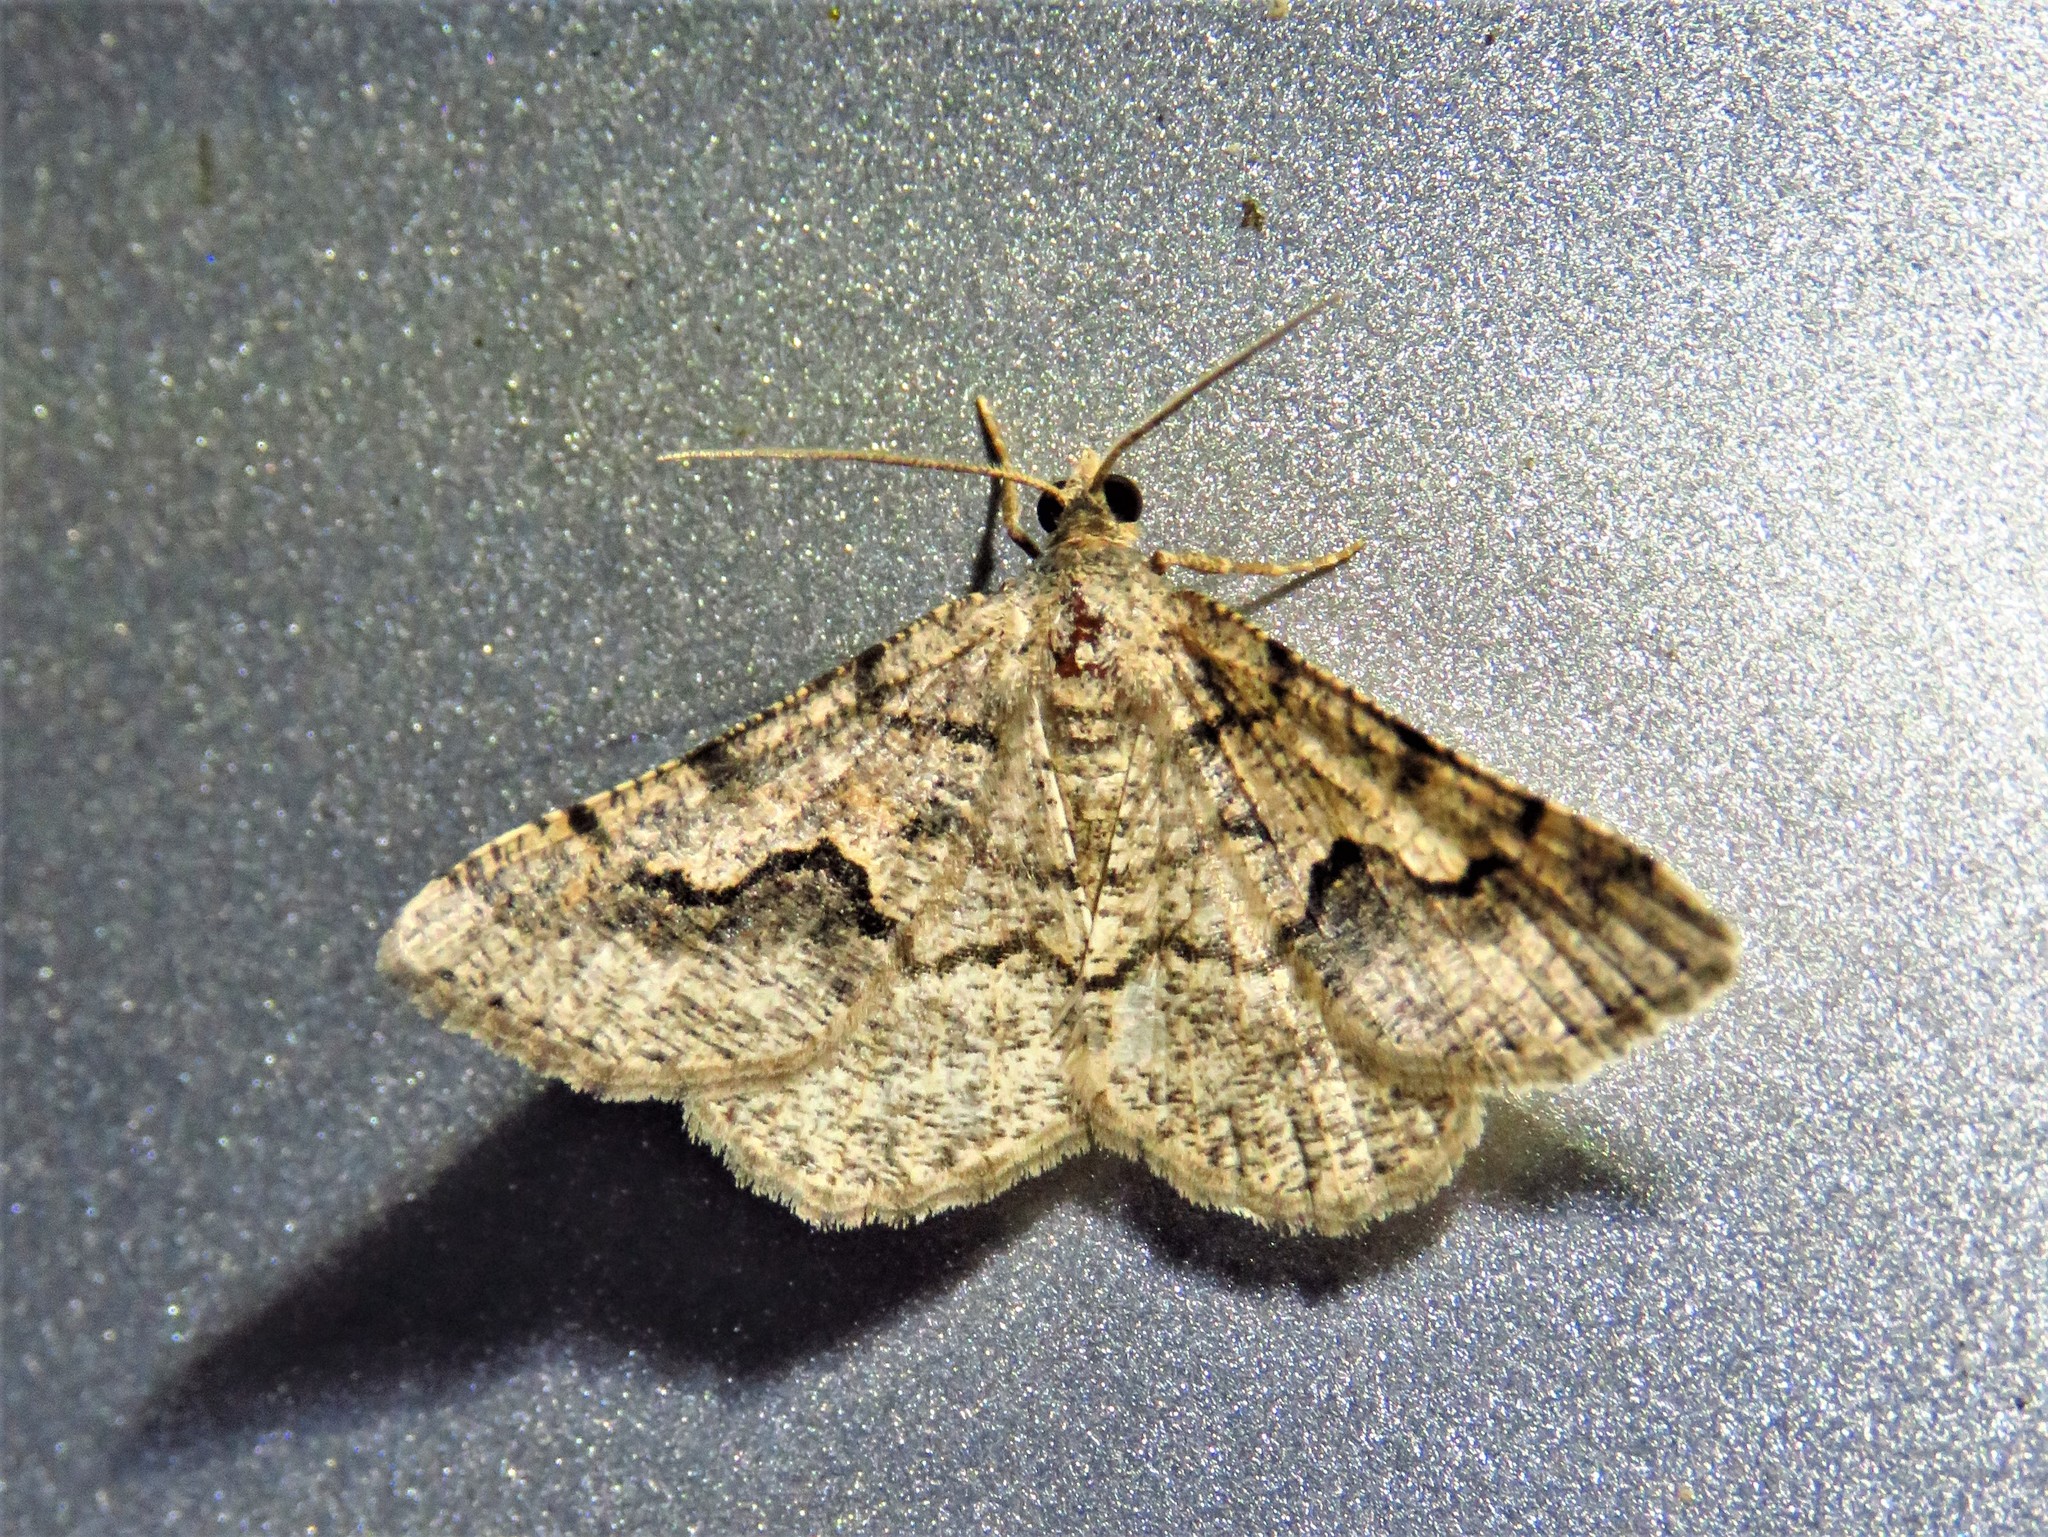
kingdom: Animalia
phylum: Arthropoda
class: Insecta
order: Lepidoptera
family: Geometridae
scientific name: Geometridae
